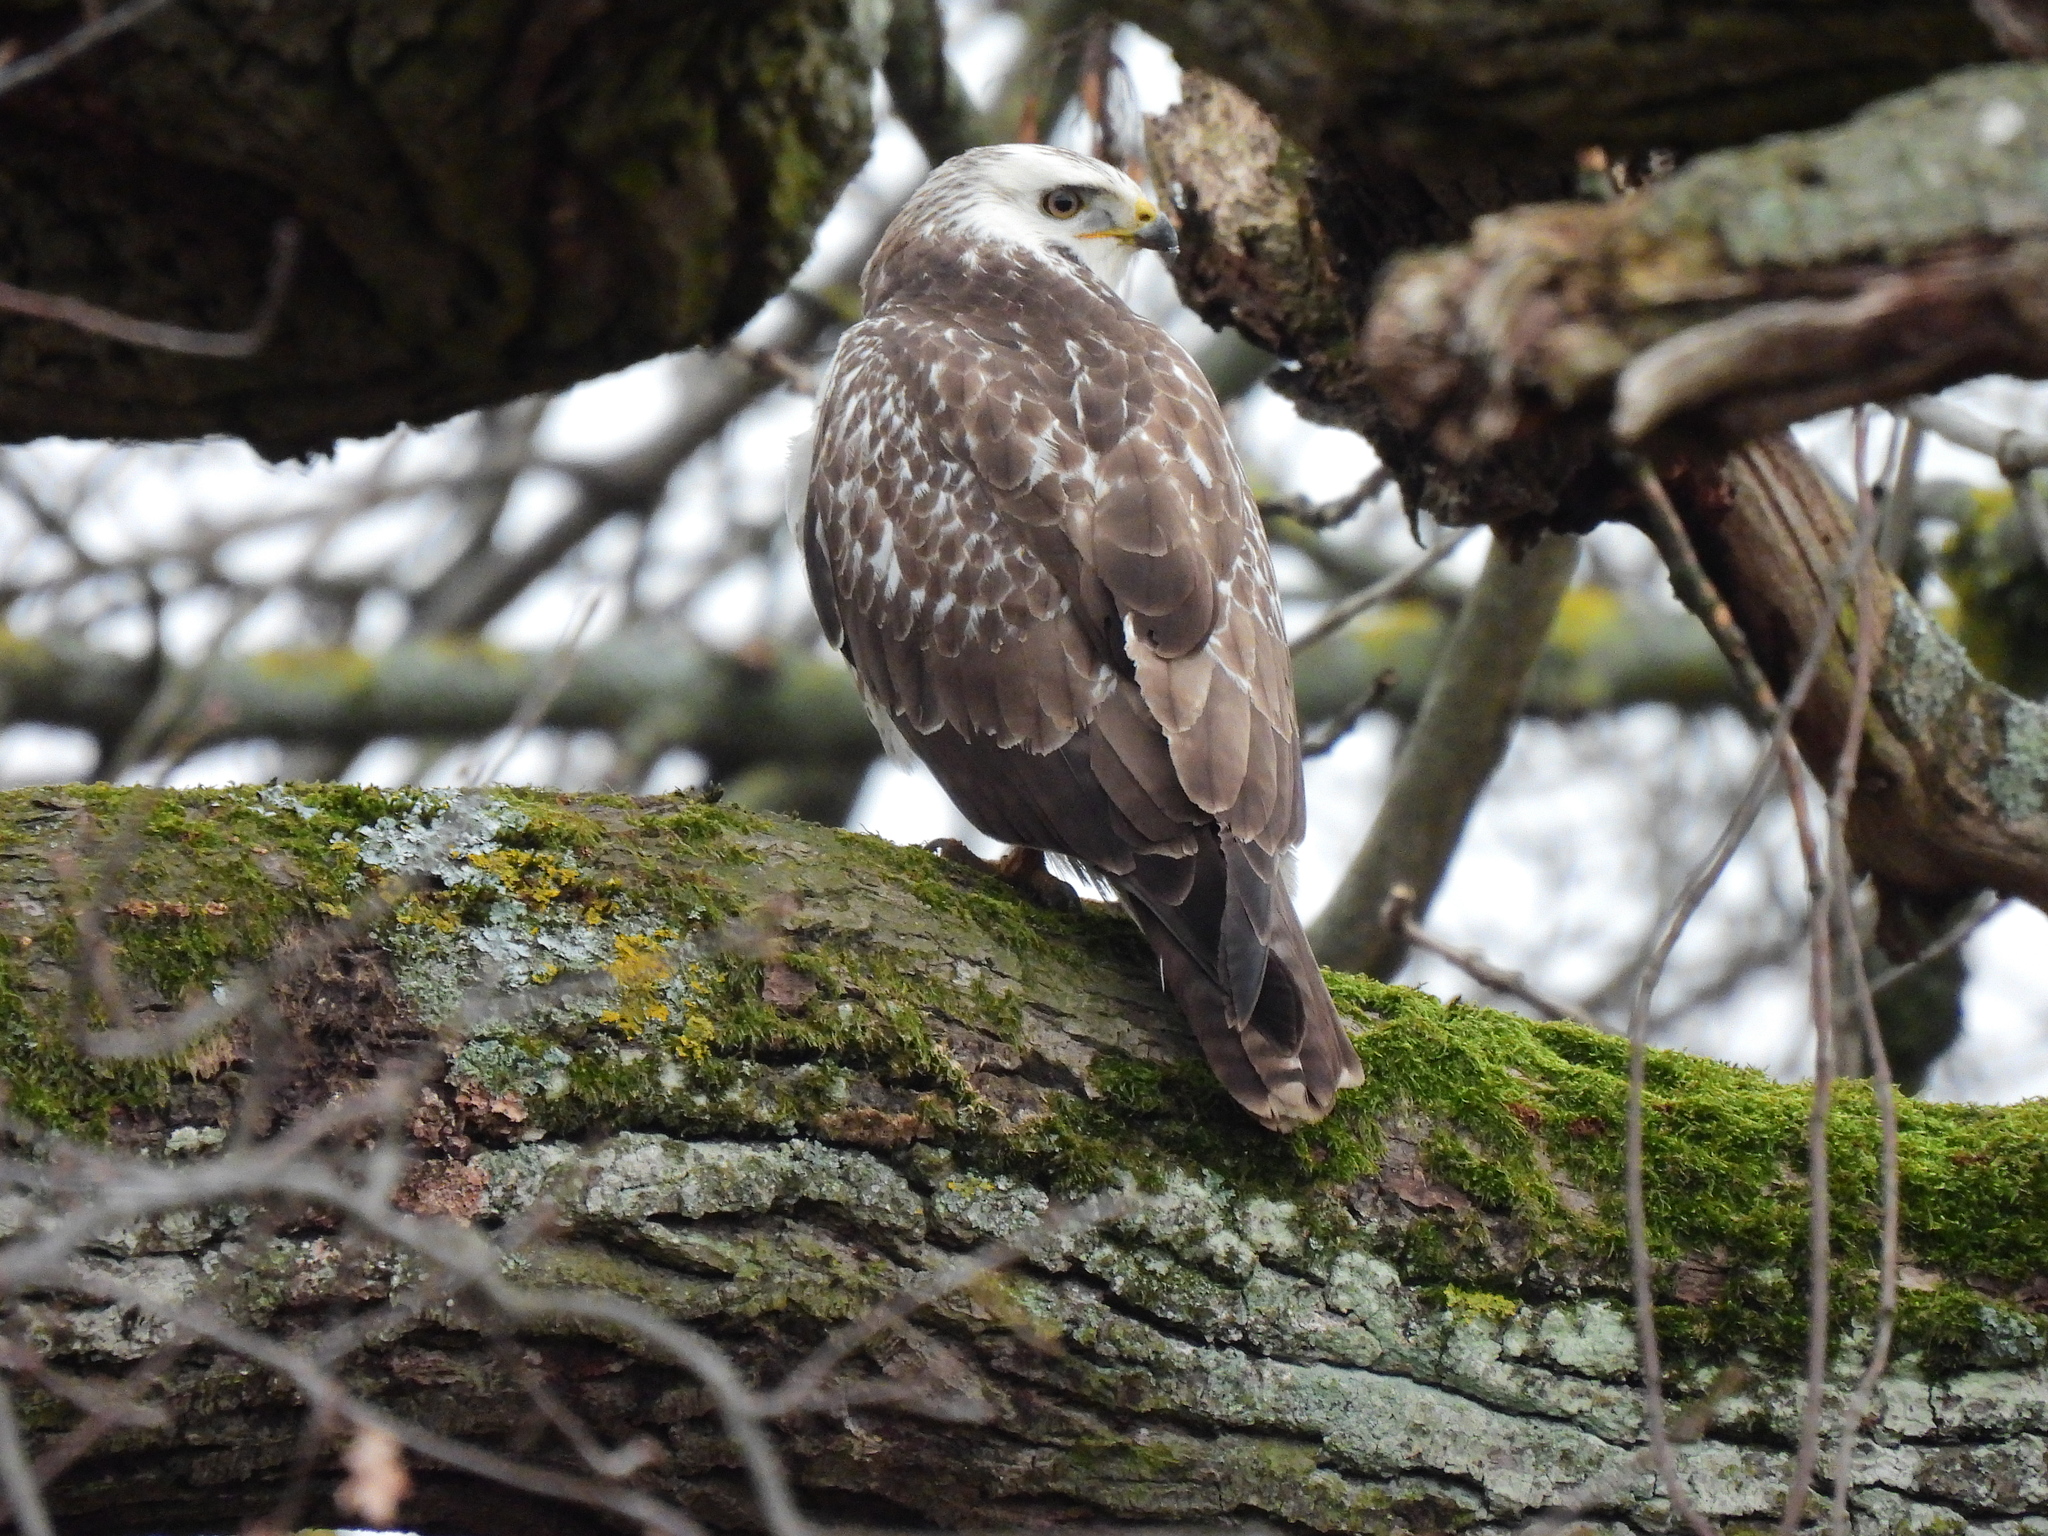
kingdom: Animalia
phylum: Chordata
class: Aves
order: Accipitriformes
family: Accipitridae
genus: Buteo
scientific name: Buteo buteo
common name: Common buzzard
